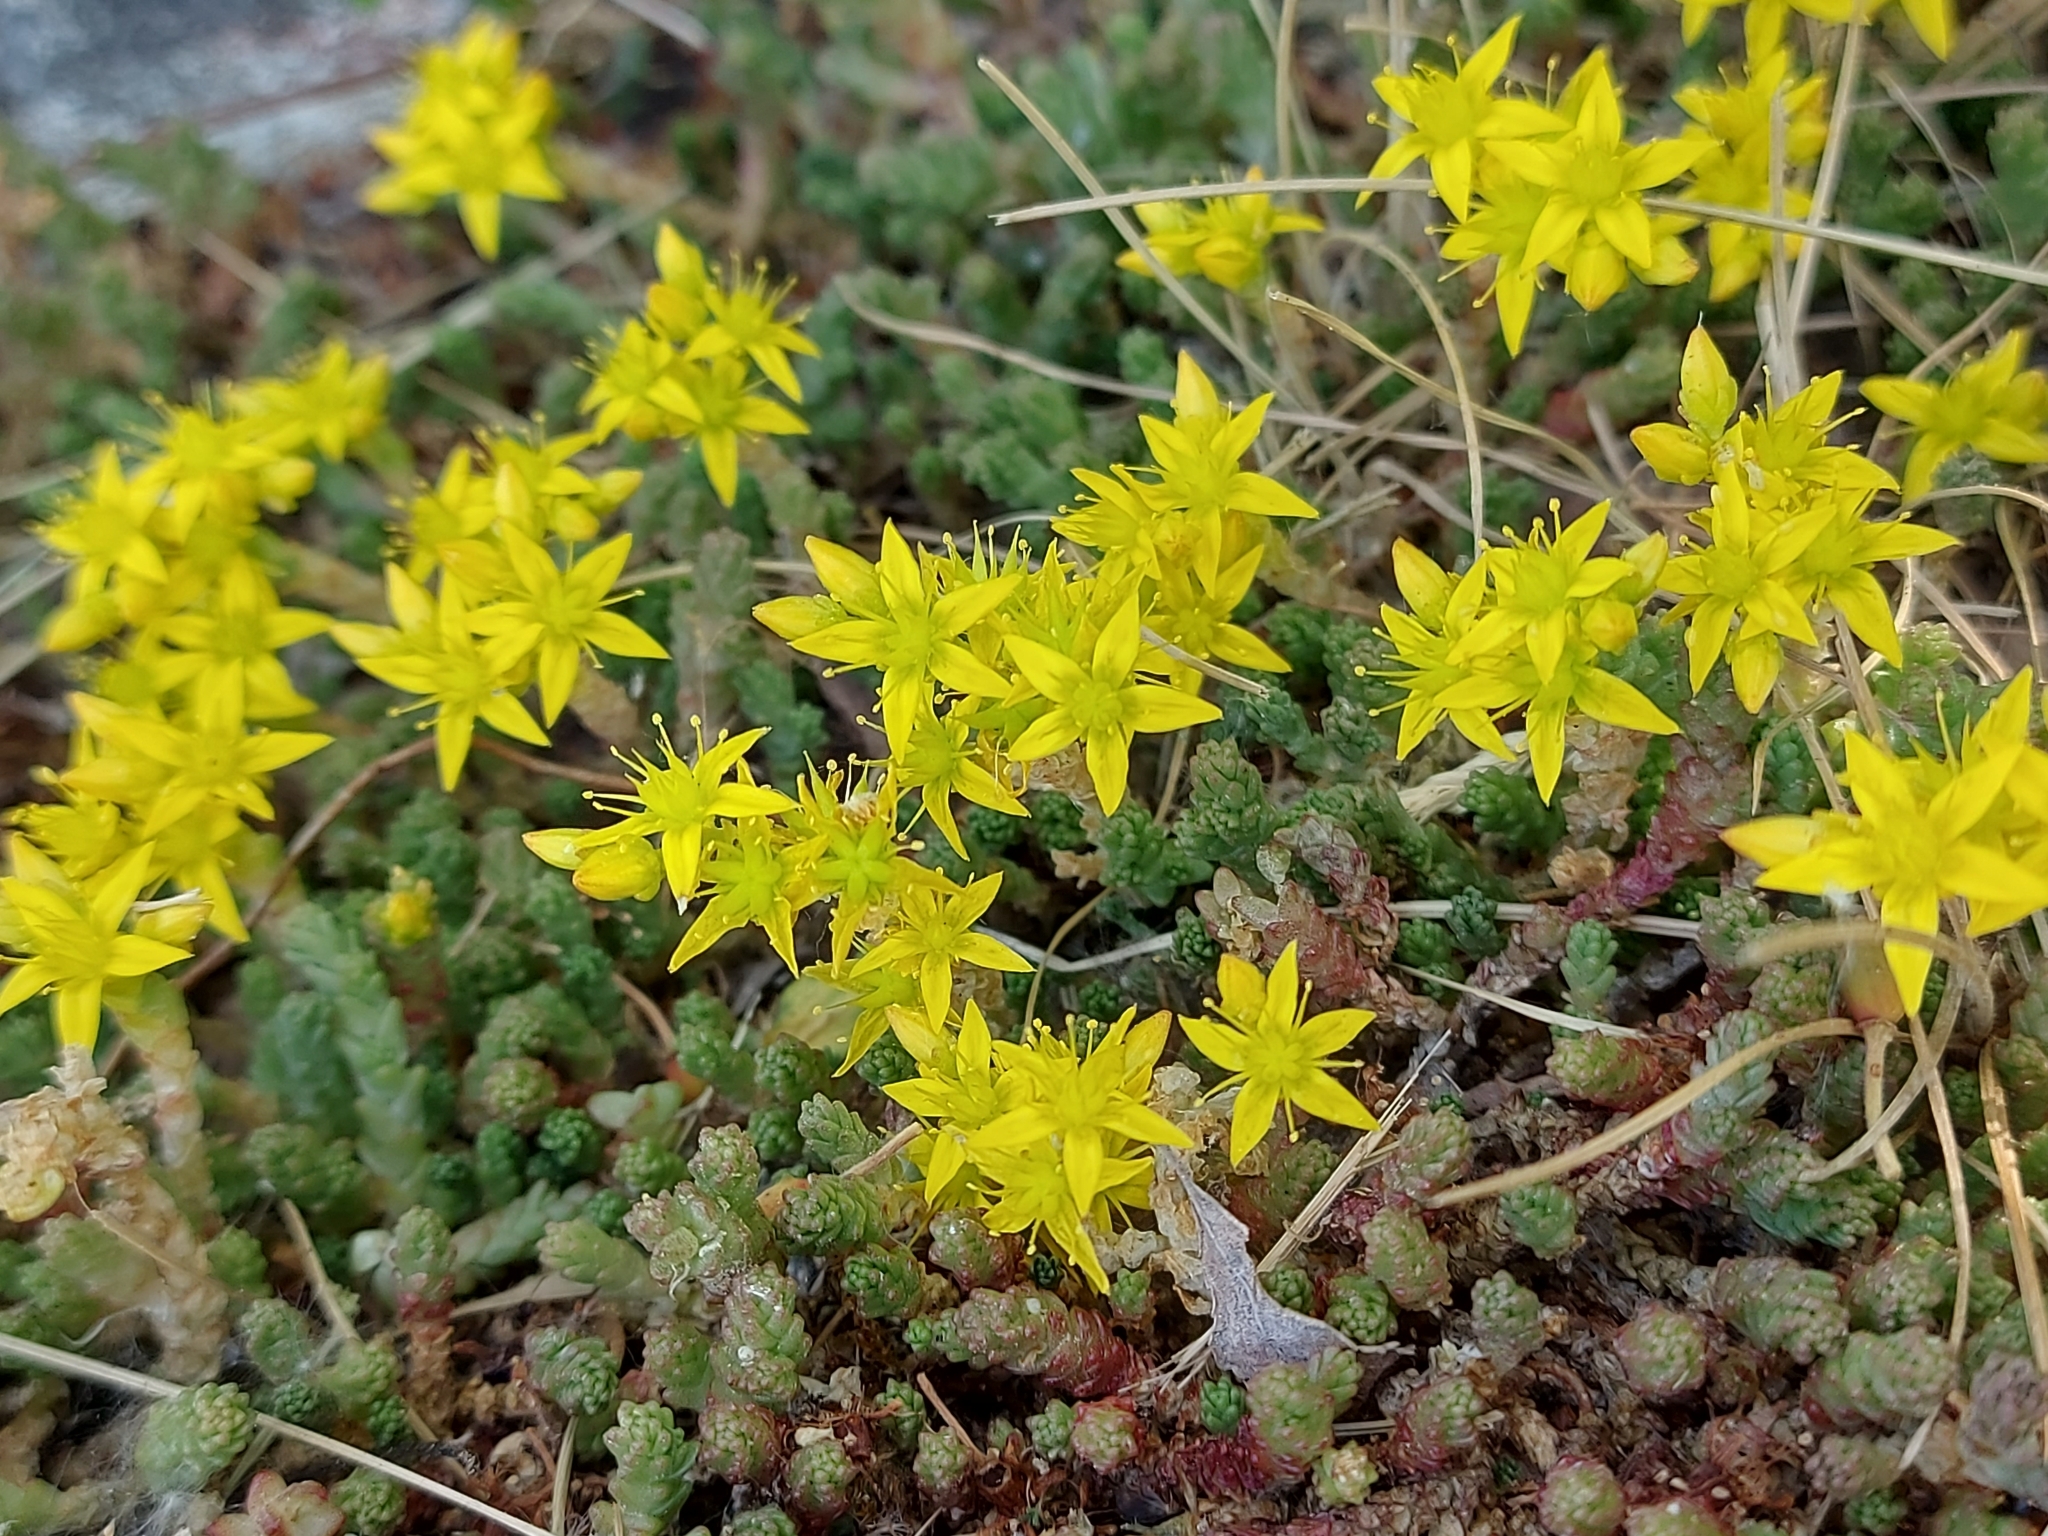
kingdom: Plantae
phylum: Tracheophyta
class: Magnoliopsida
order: Saxifragales
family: Crassulaceae
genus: Sedum
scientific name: Sedum acre
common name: Biting stonecrop
